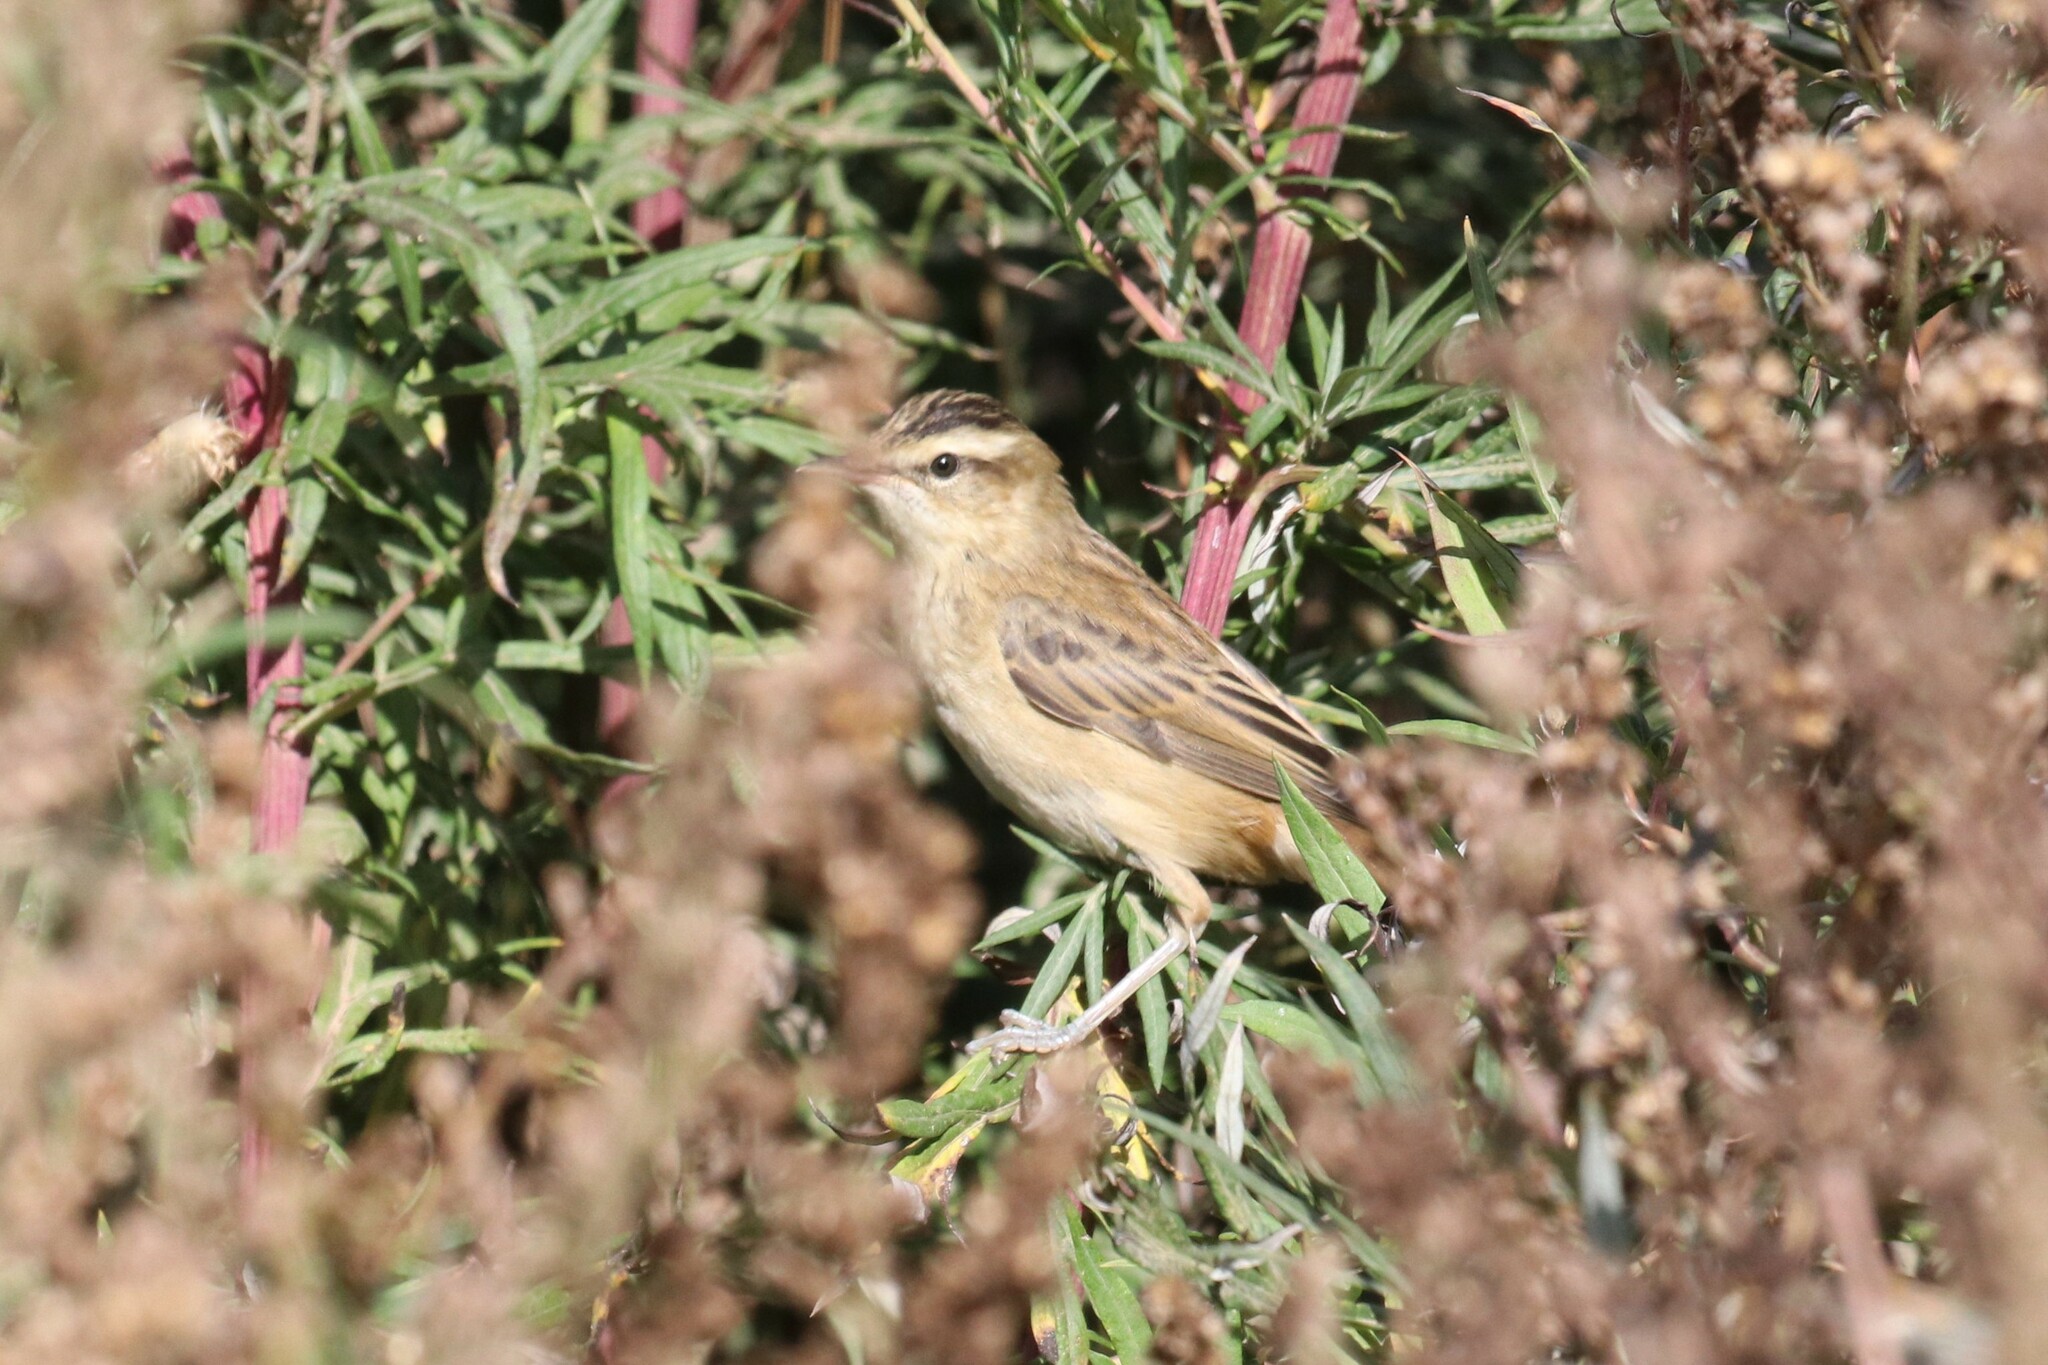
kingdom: Animalia
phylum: Chordata
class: Aves
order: Passeriformes
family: Acrocephalidae
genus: Acrocephalus
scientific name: Acrocephalus schoenobaenus
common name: Sedge warbler
